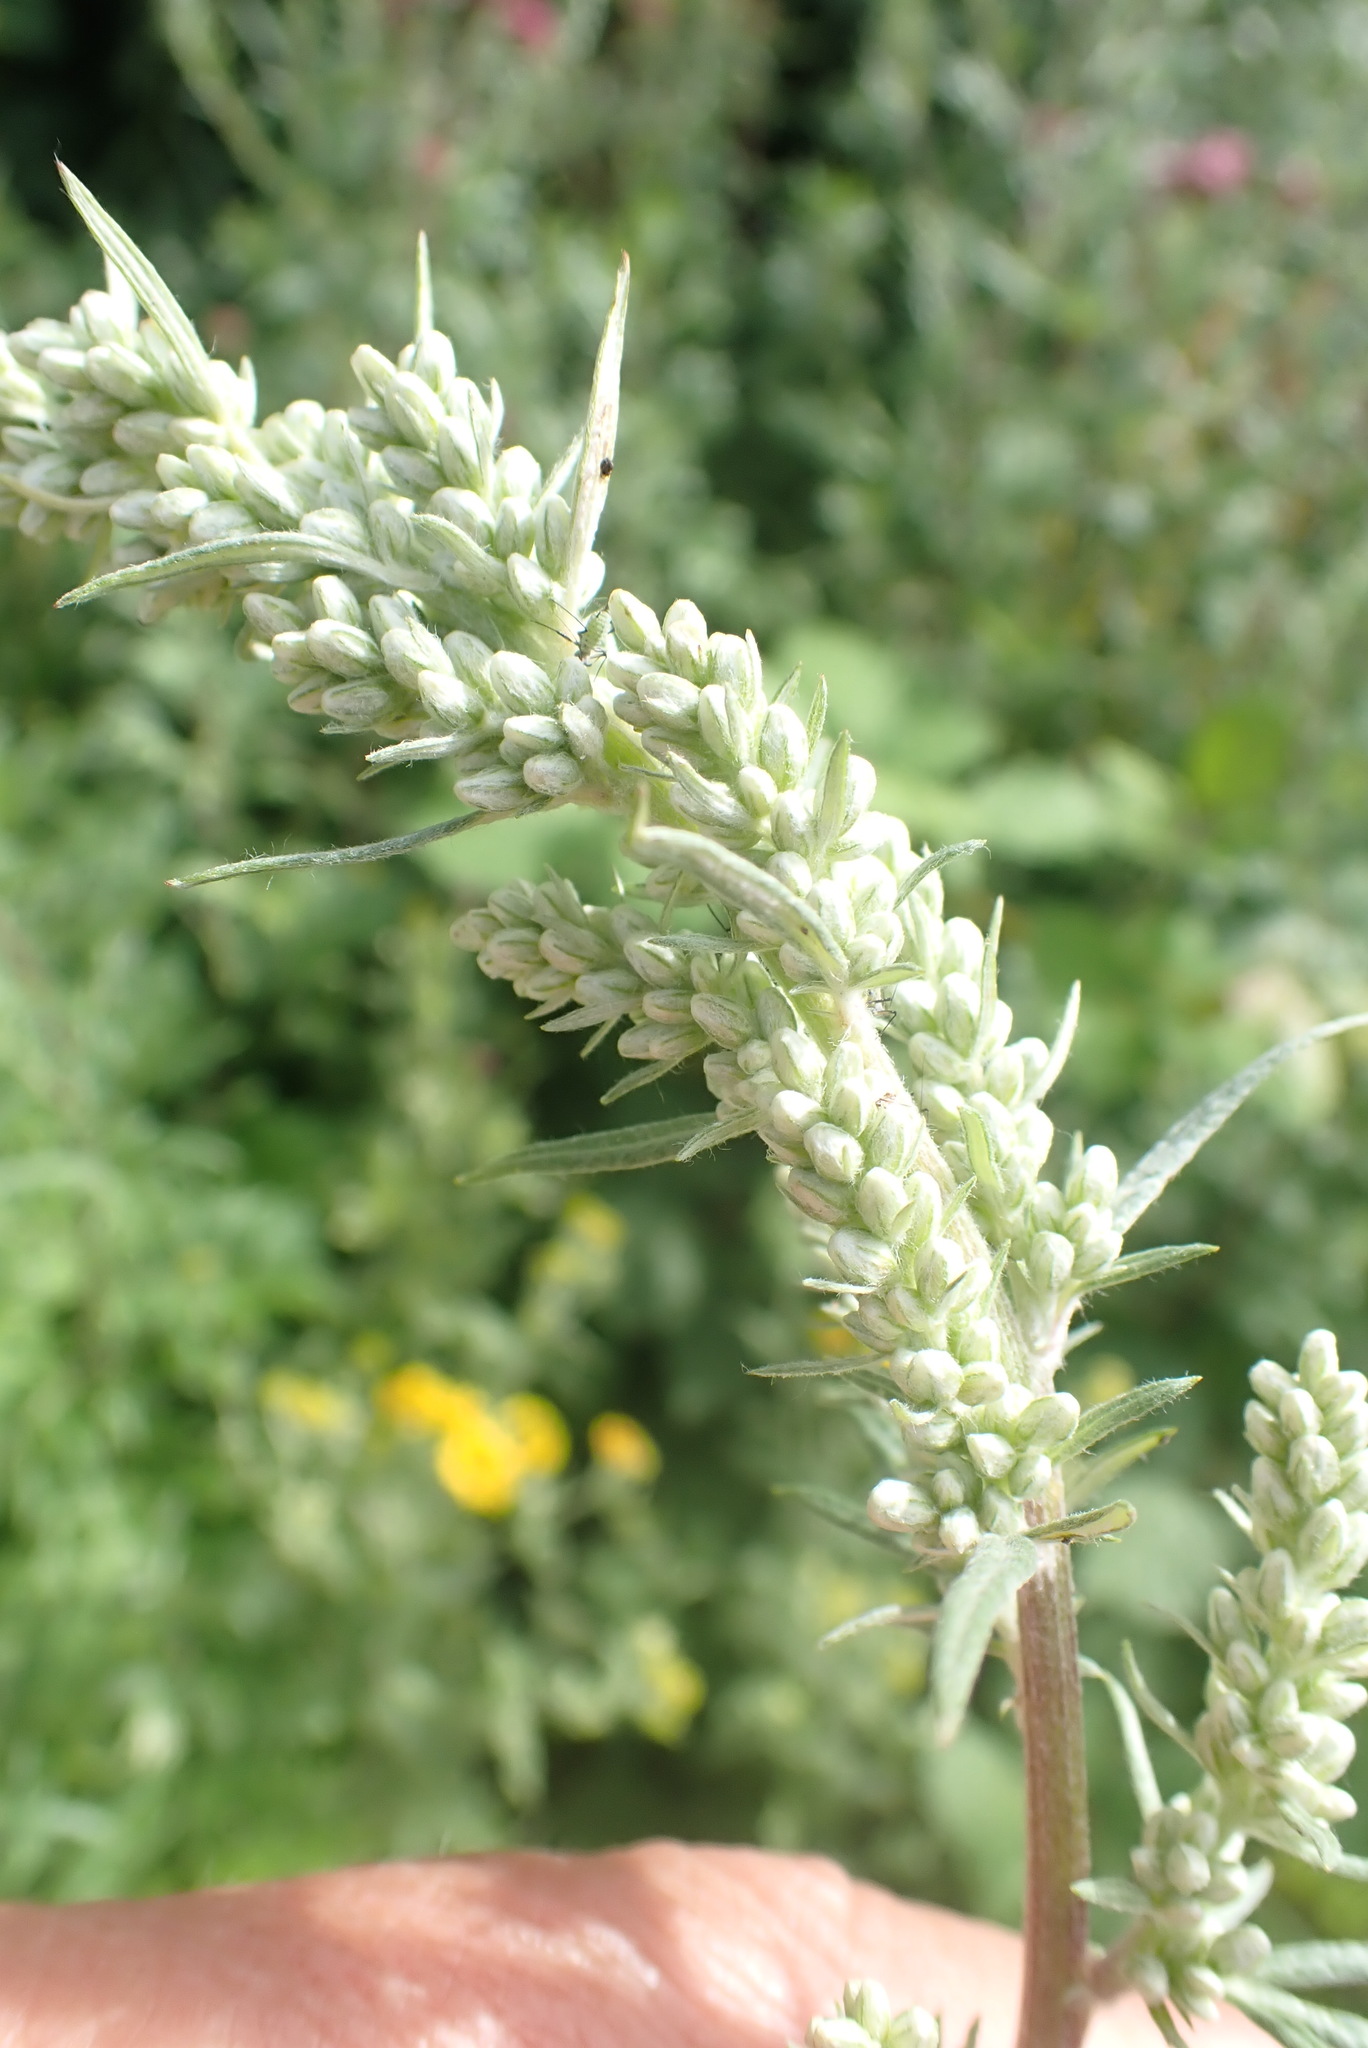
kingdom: Plantae
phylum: Tracheophyta
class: Magnoliopsida
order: Asterales
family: Asteraceae
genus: Artemisia
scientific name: Artemisia vulgaris
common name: Mugwort
